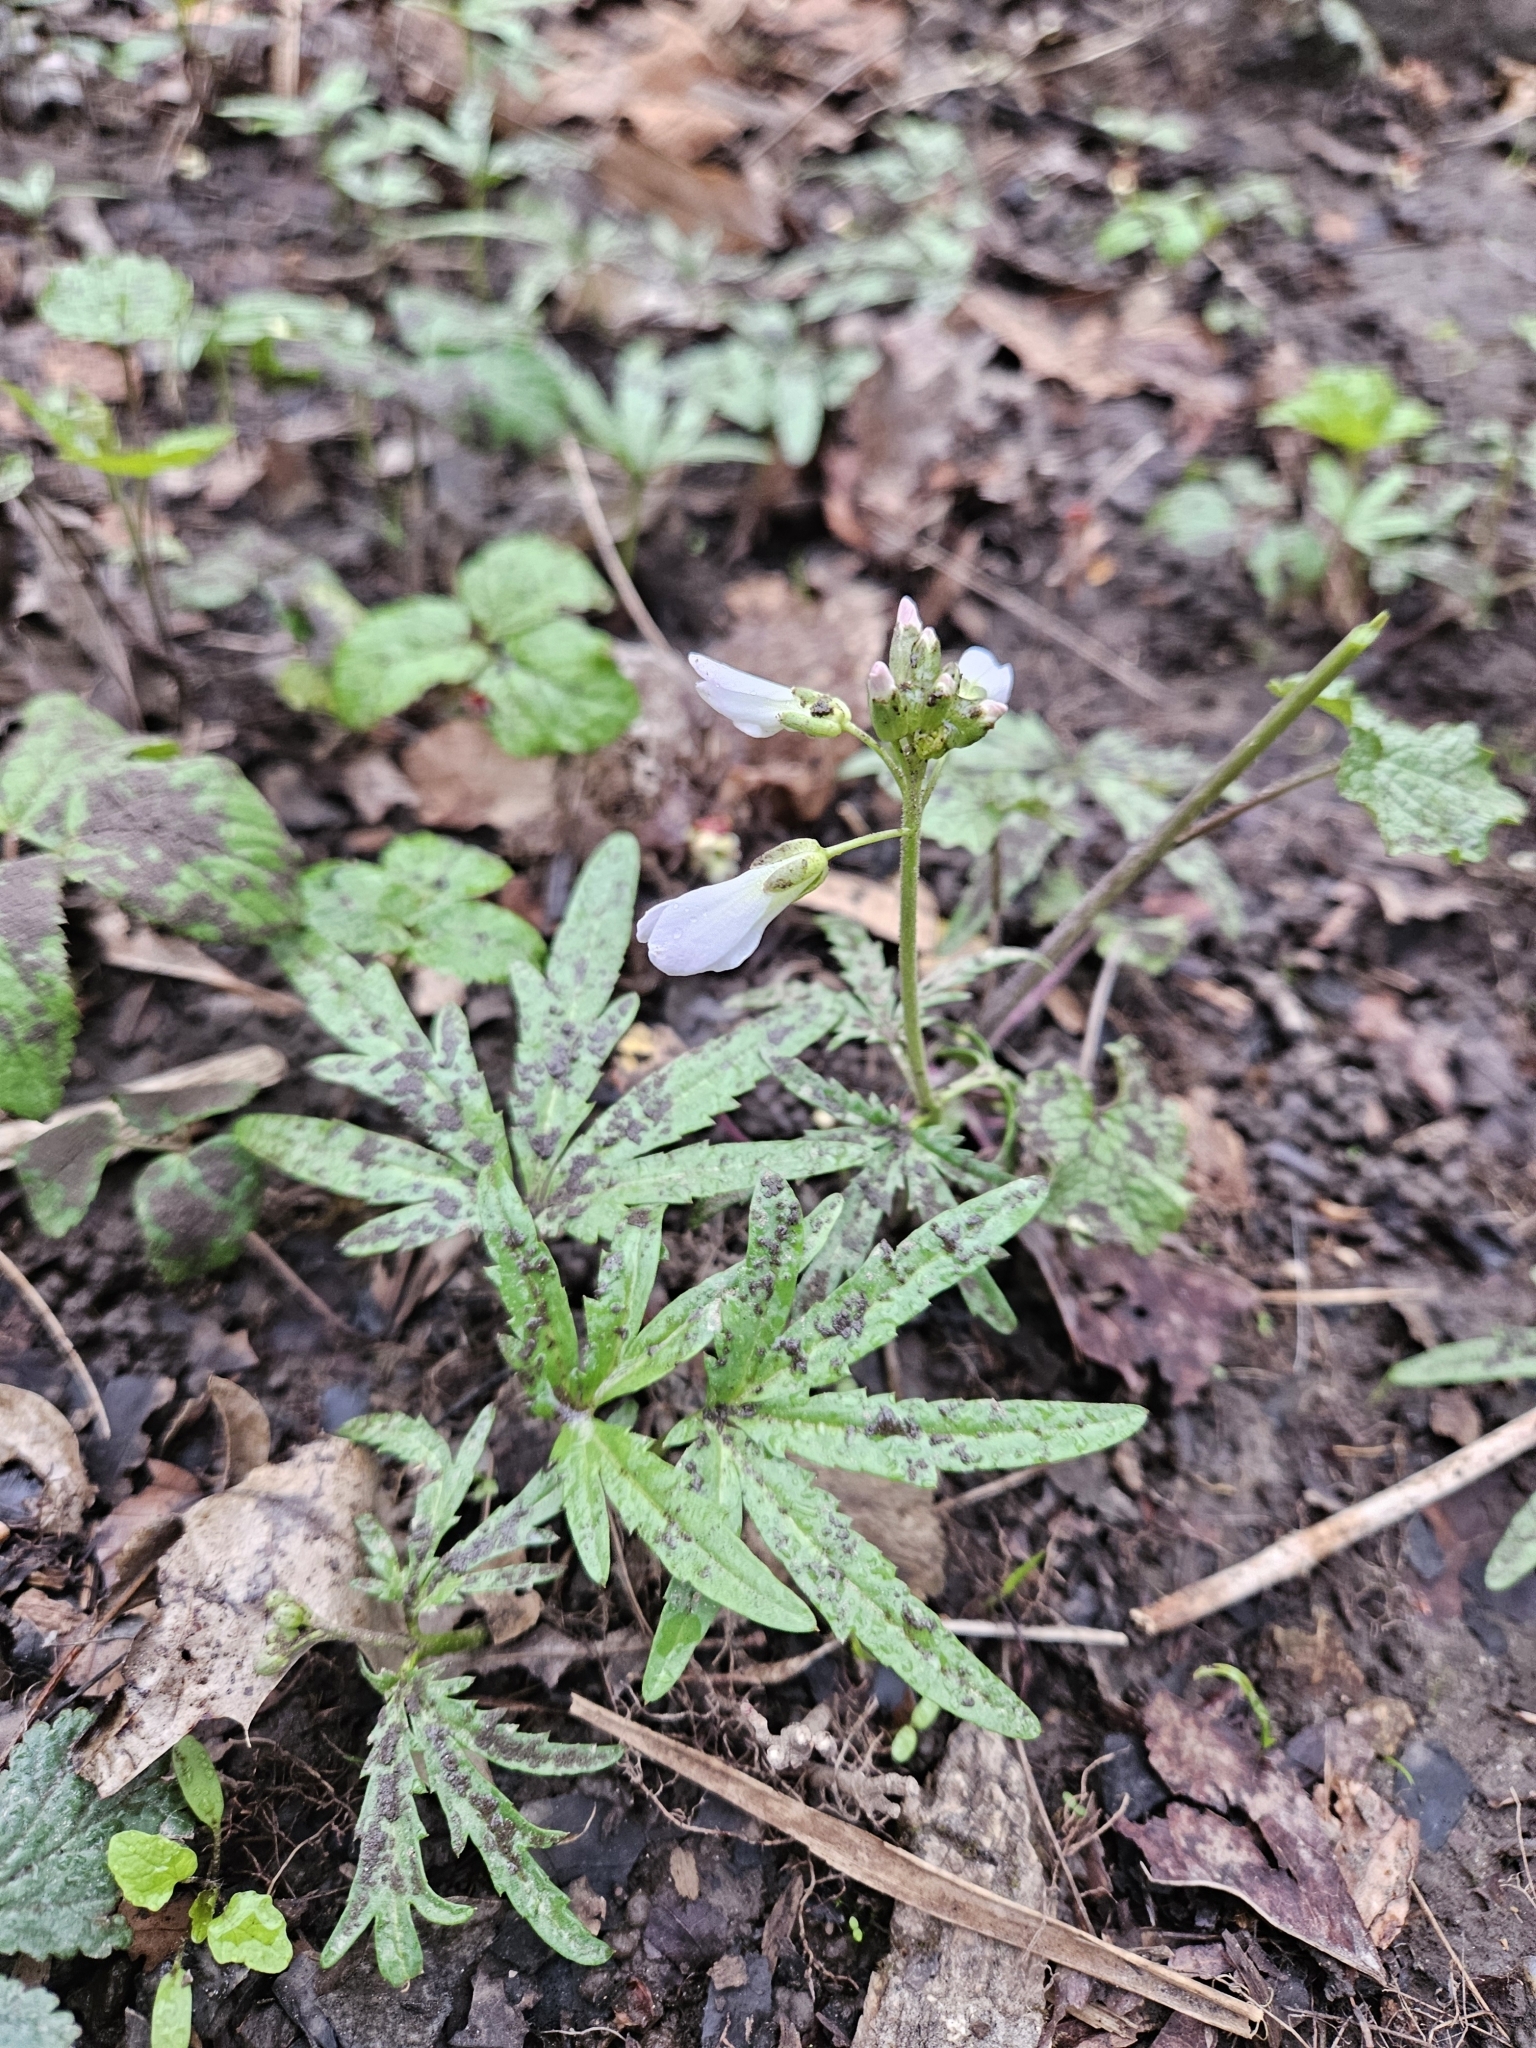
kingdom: Plantae
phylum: Tracheophyta
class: Magnoliopsida
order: Brassicales
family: Brassicaceae
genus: Cardamine
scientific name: Cardamine concatenata
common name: Cut-leaf toothcup
